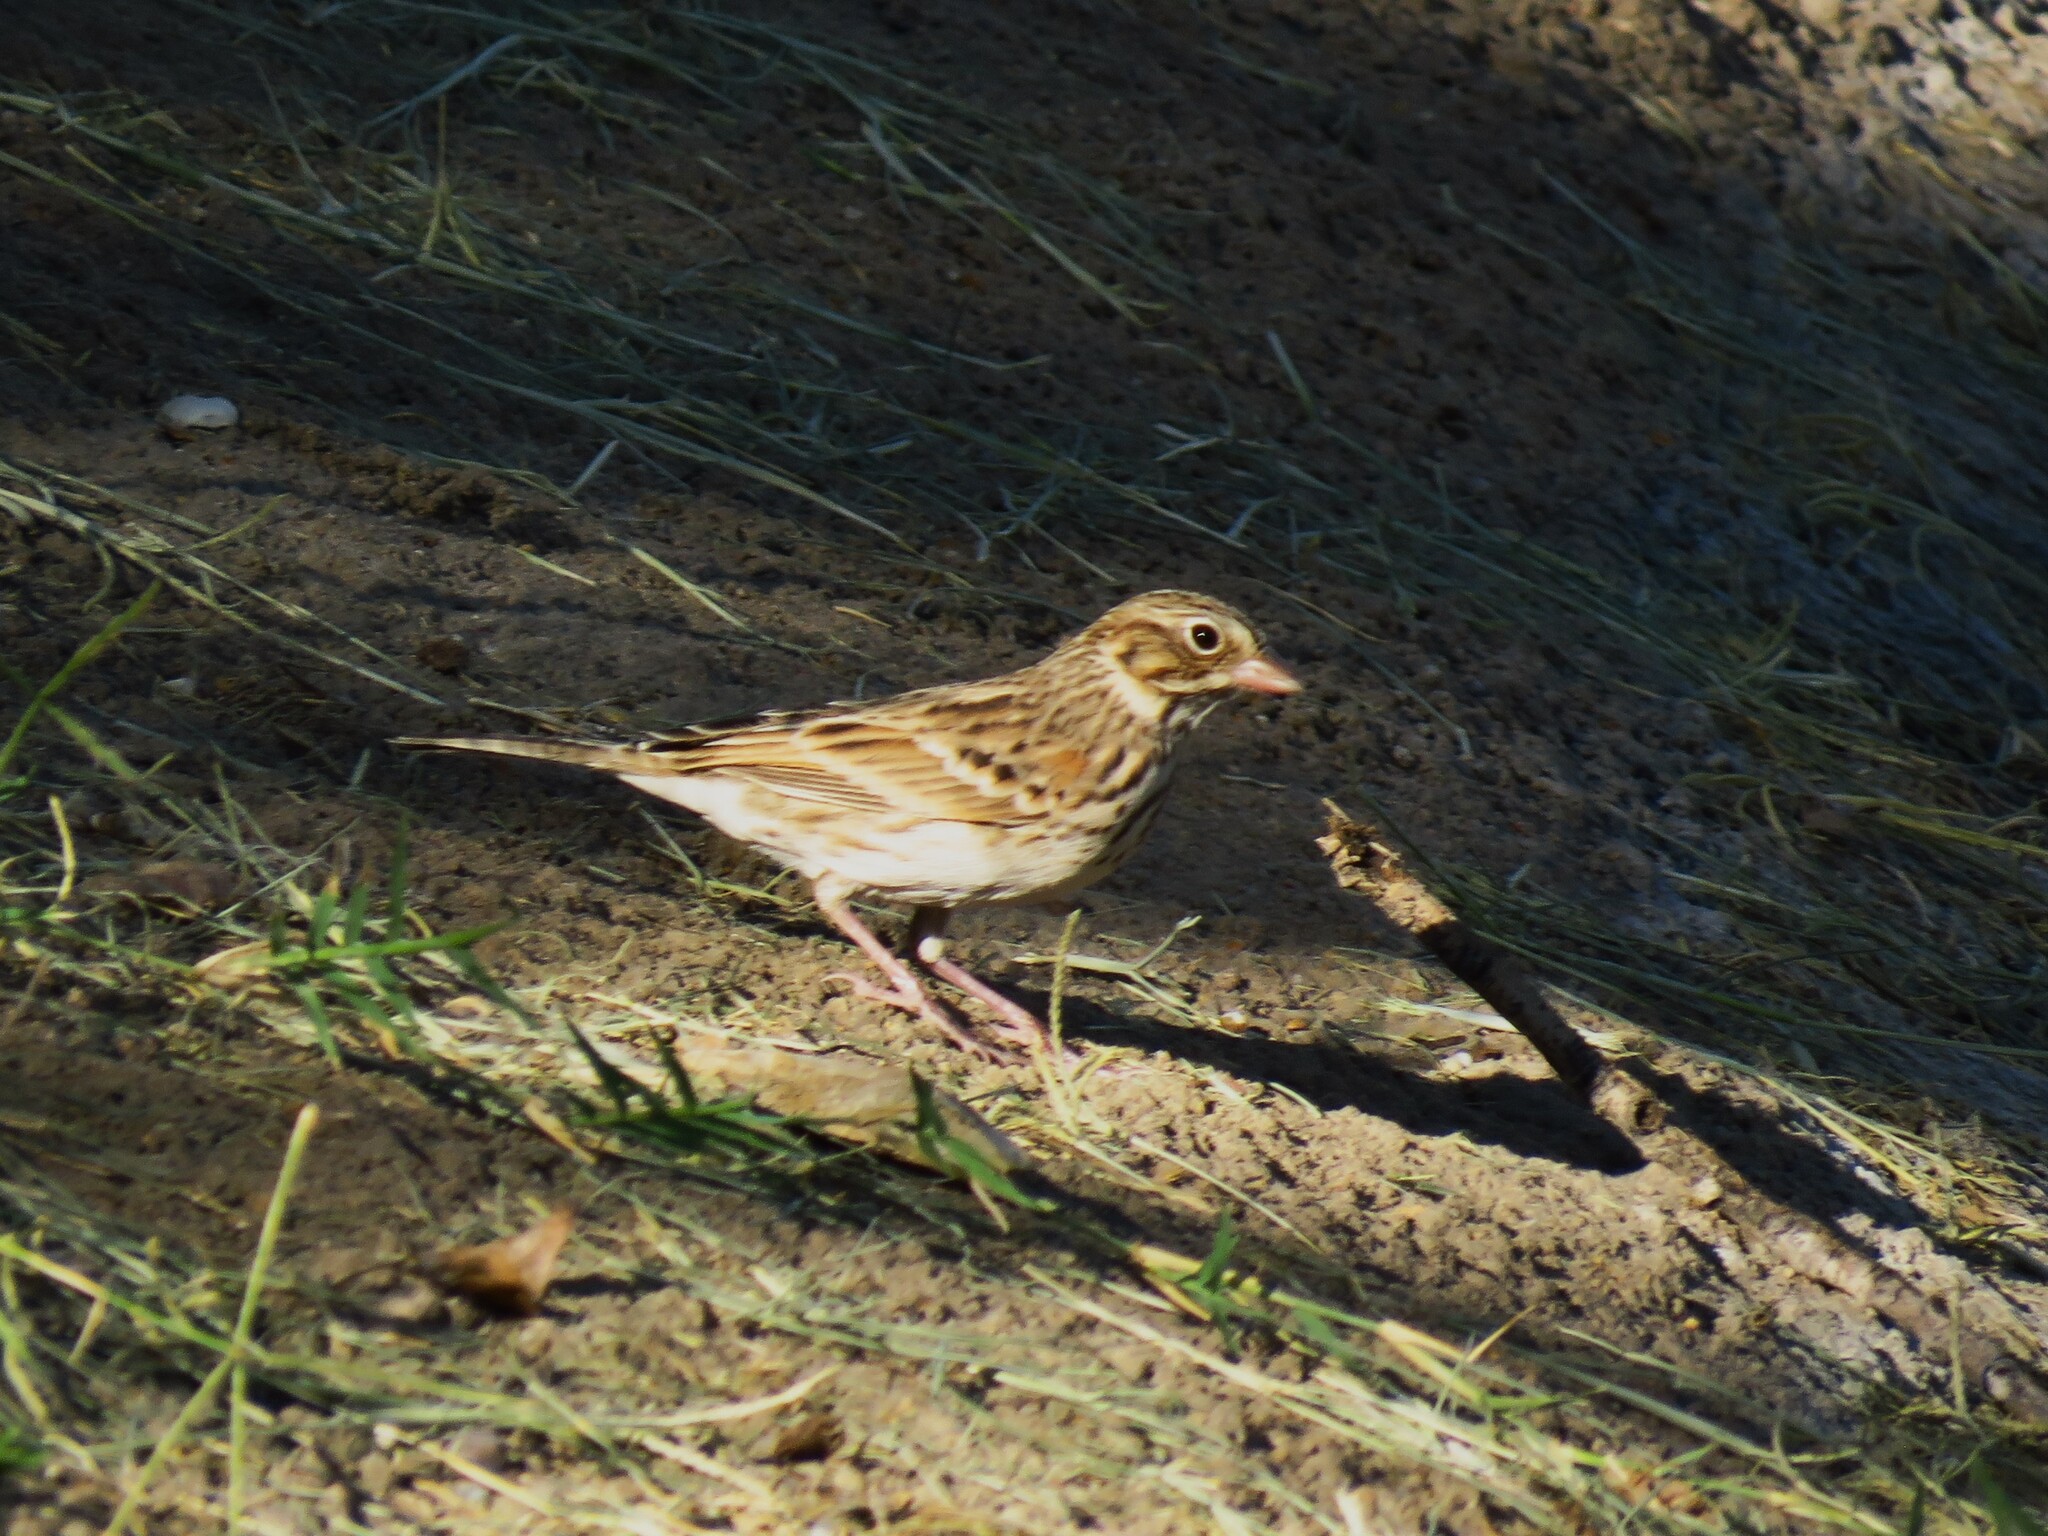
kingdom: Animalia
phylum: Chordata
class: Aves
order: Passeriformes
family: Passerellidae
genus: Pooecetes
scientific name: Pooecetes gramineus
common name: Vesper sparrow
